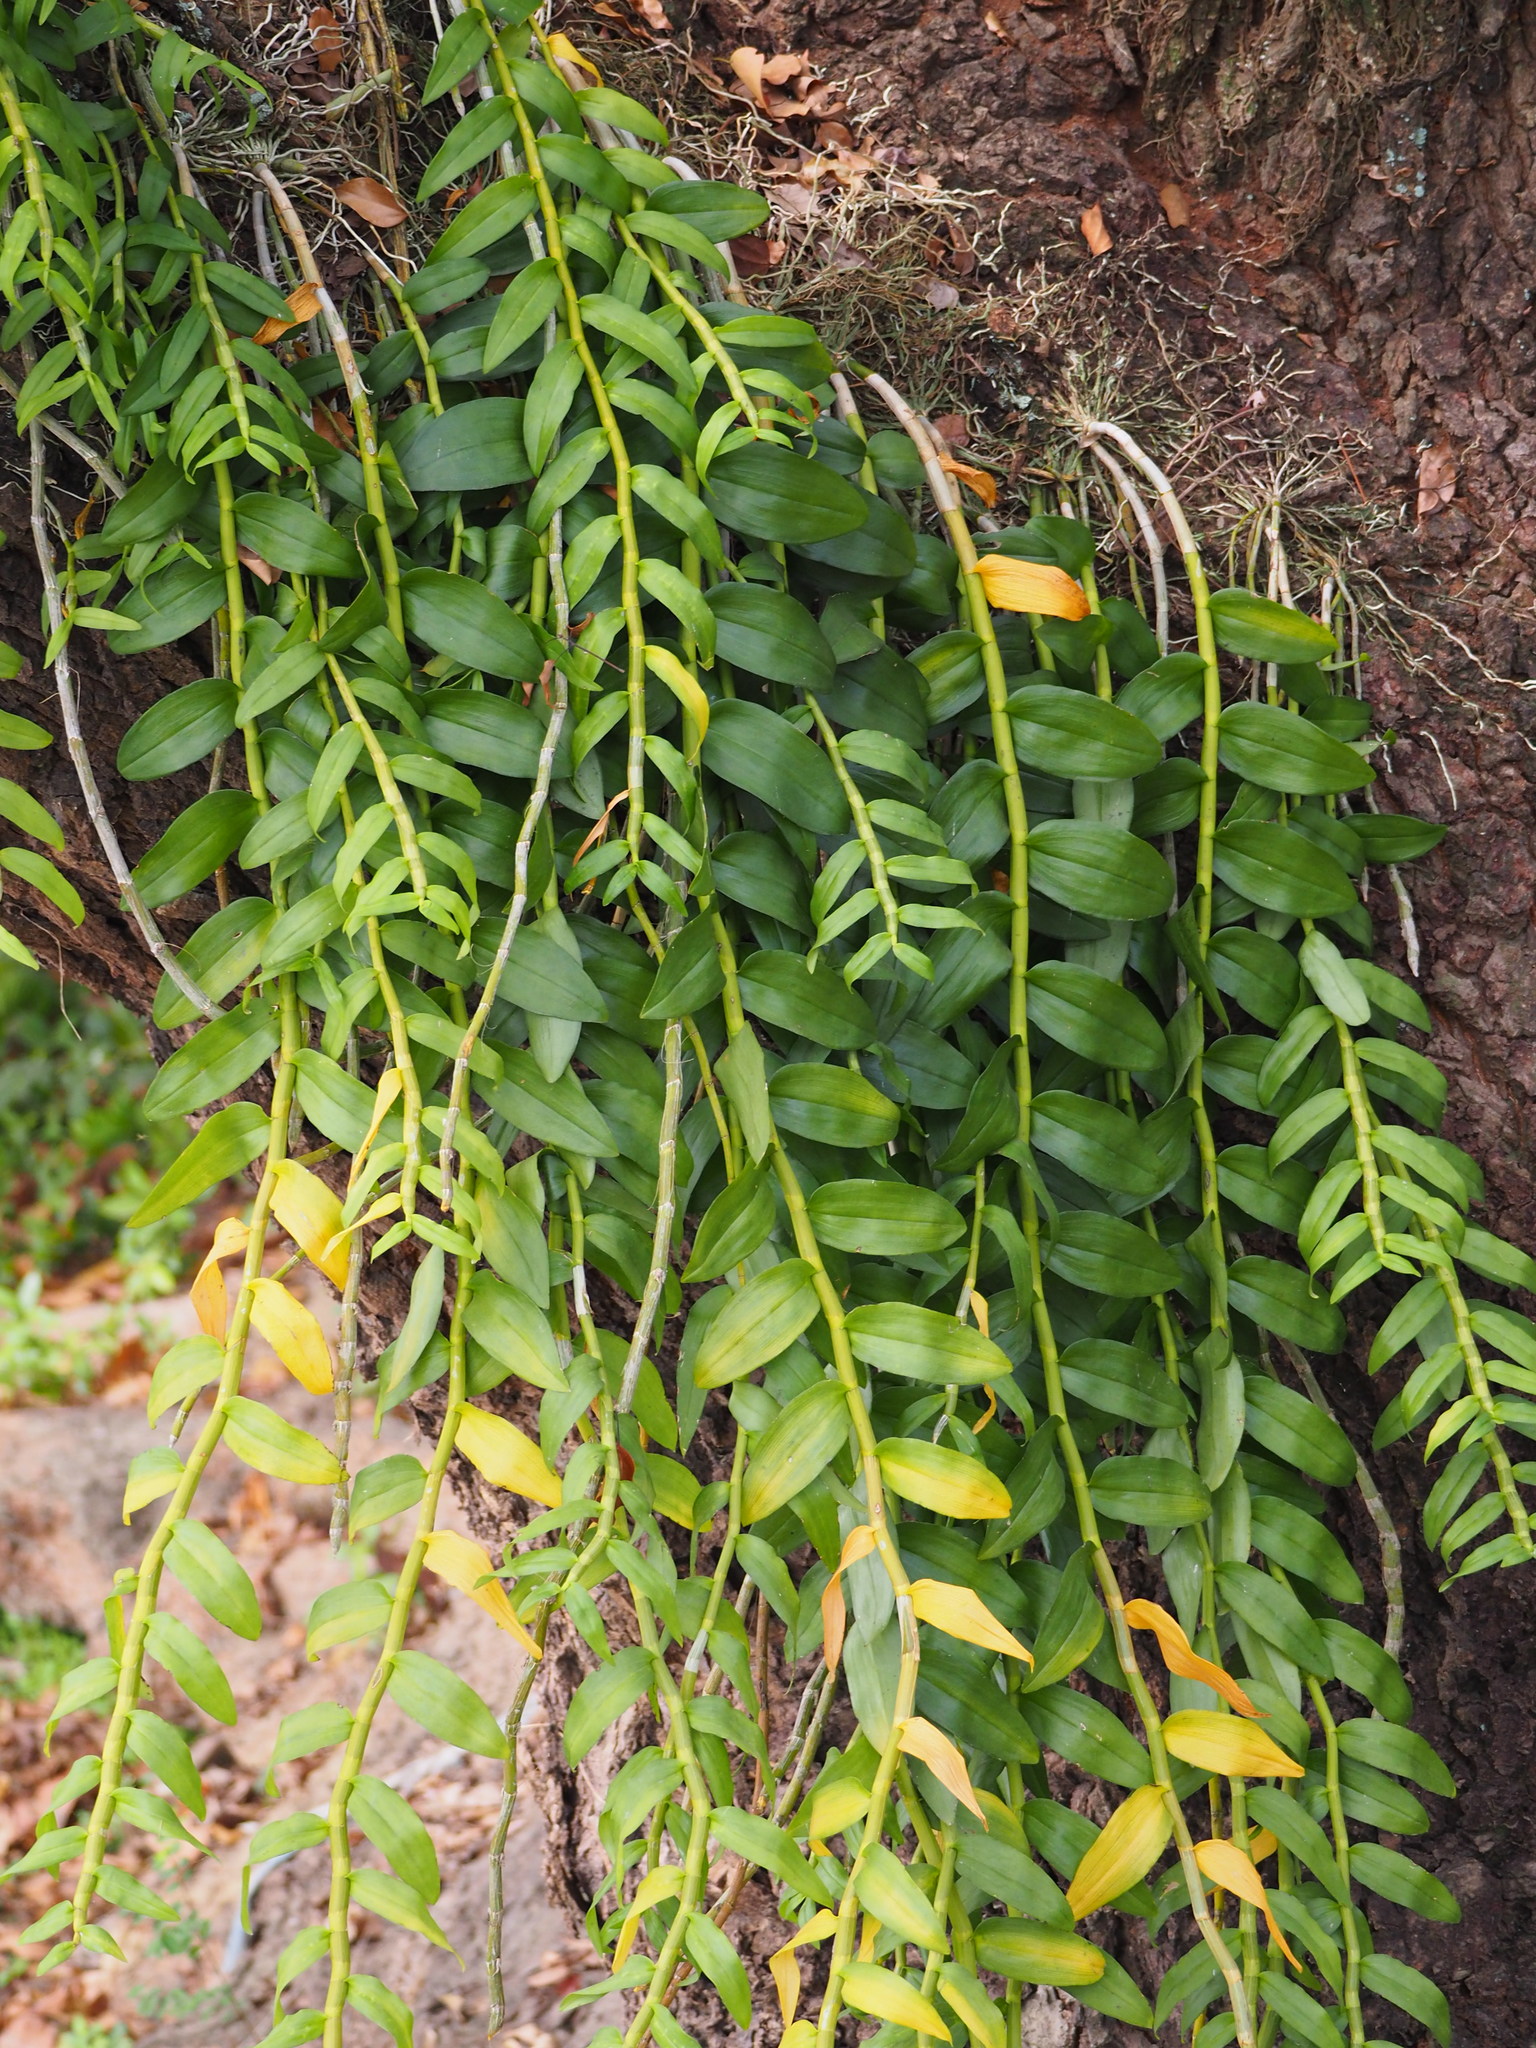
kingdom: Plantae
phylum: Tracheophyta
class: Liliopsida
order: Asparagales
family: Orchidaceae
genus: Dendrobium
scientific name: Dendrobium anosmum
